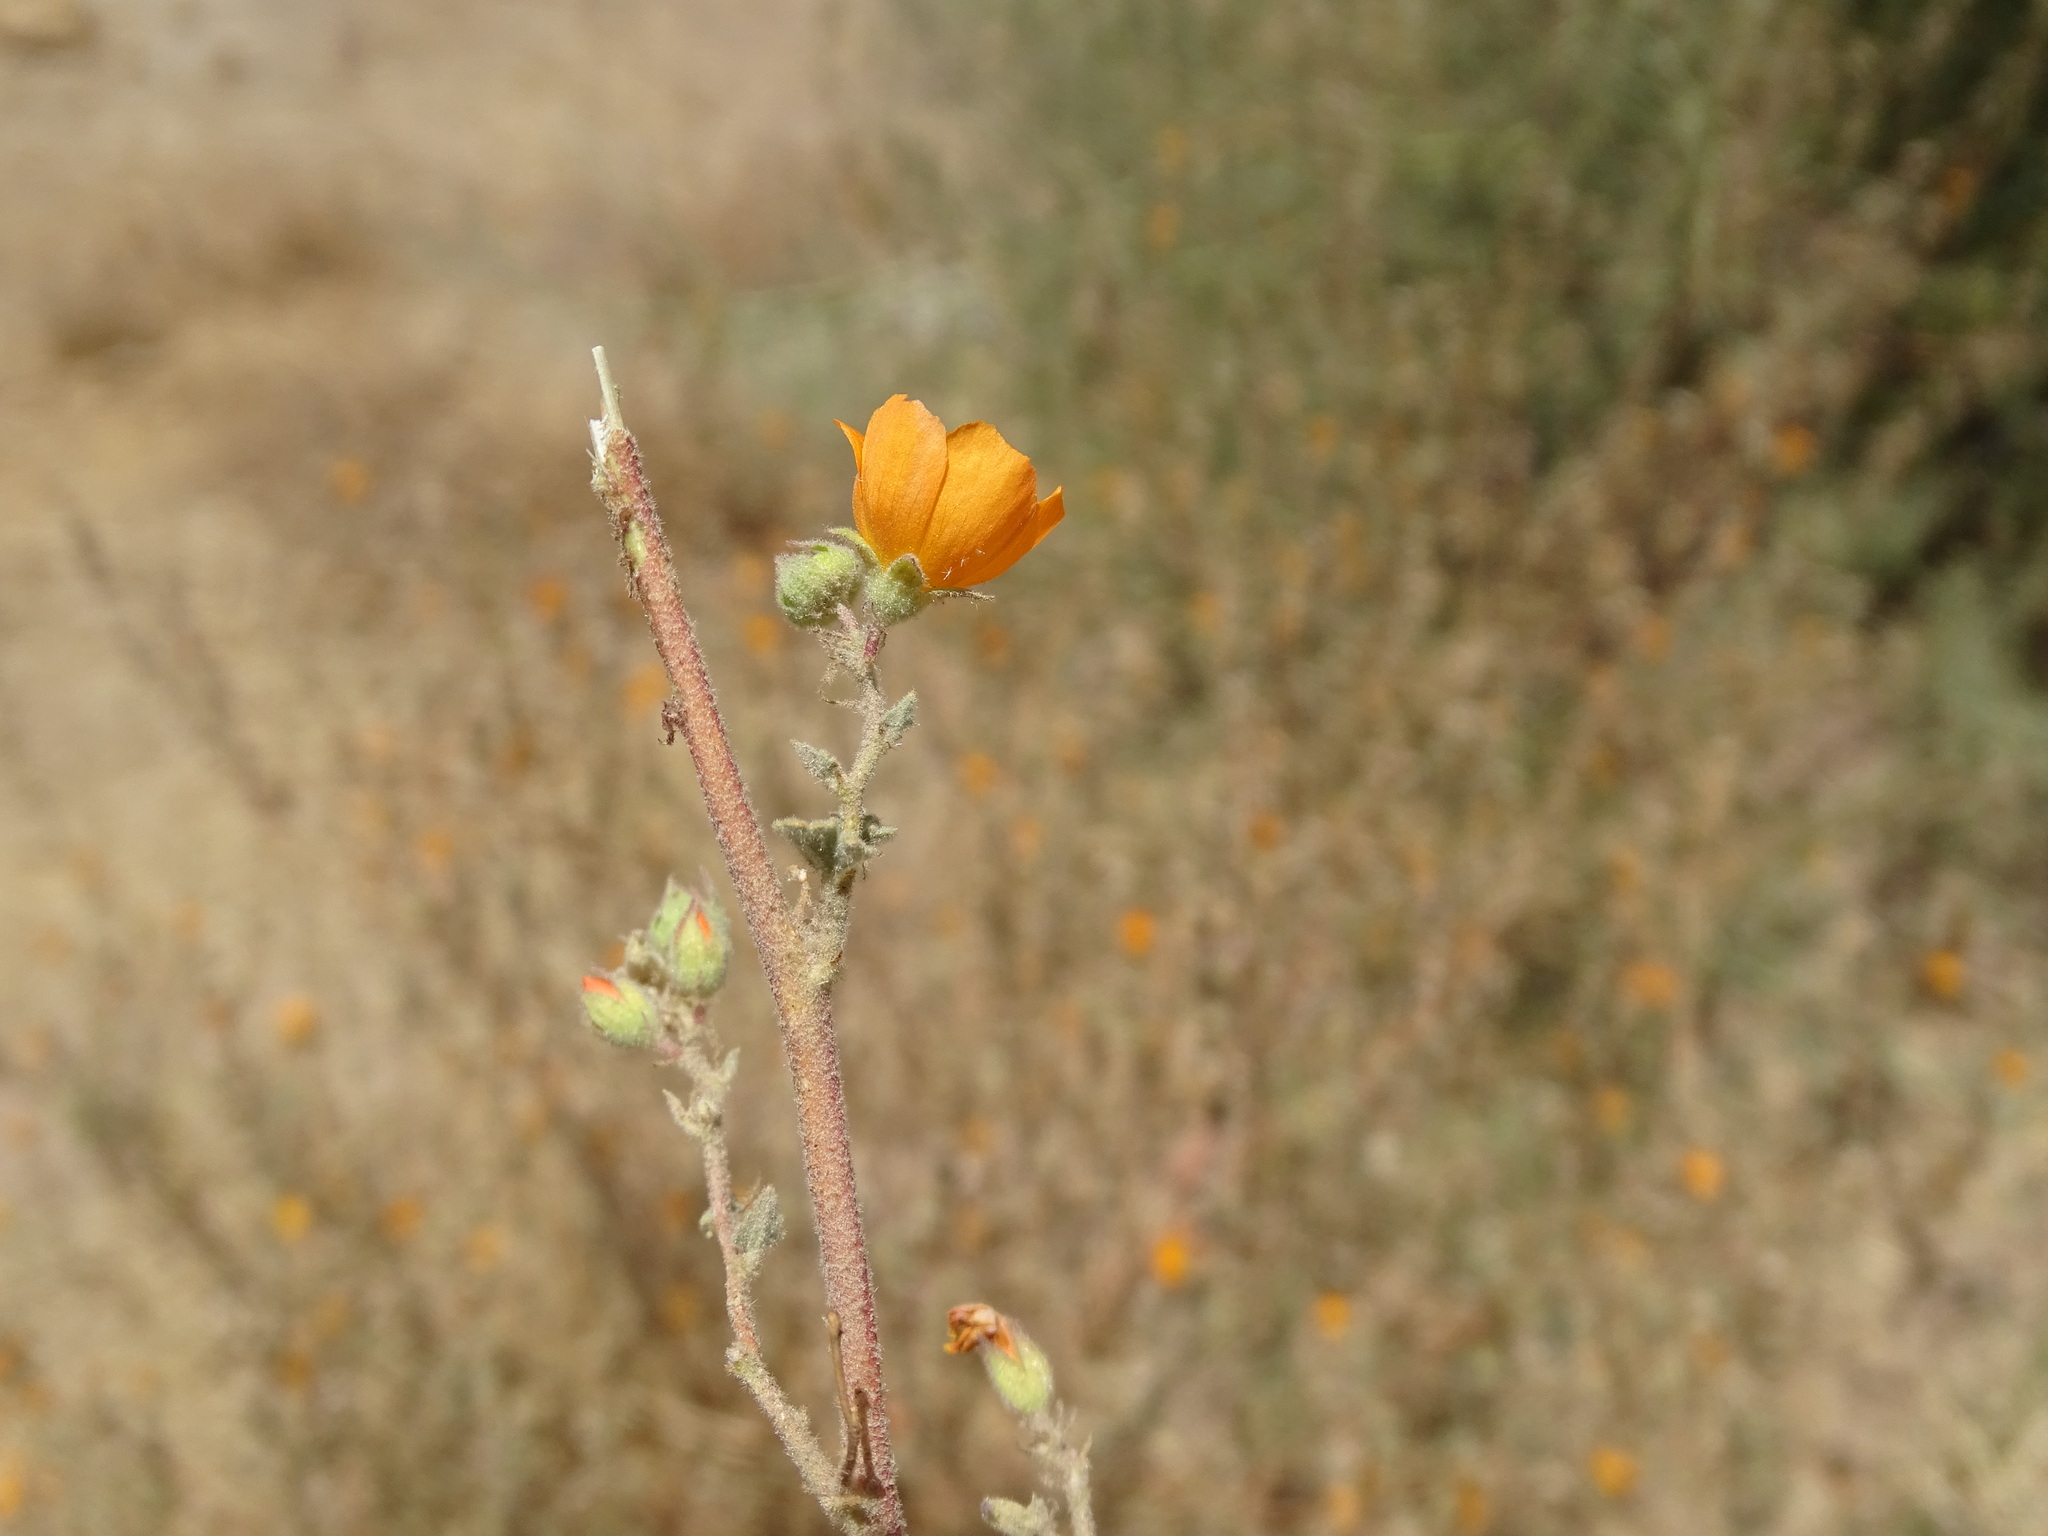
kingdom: Plantae
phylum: Tracheophyta
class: Magnoliopsida
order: Malvales
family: Malvaceae
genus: Sphaeralcea
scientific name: Sphaeralcea coulteri
